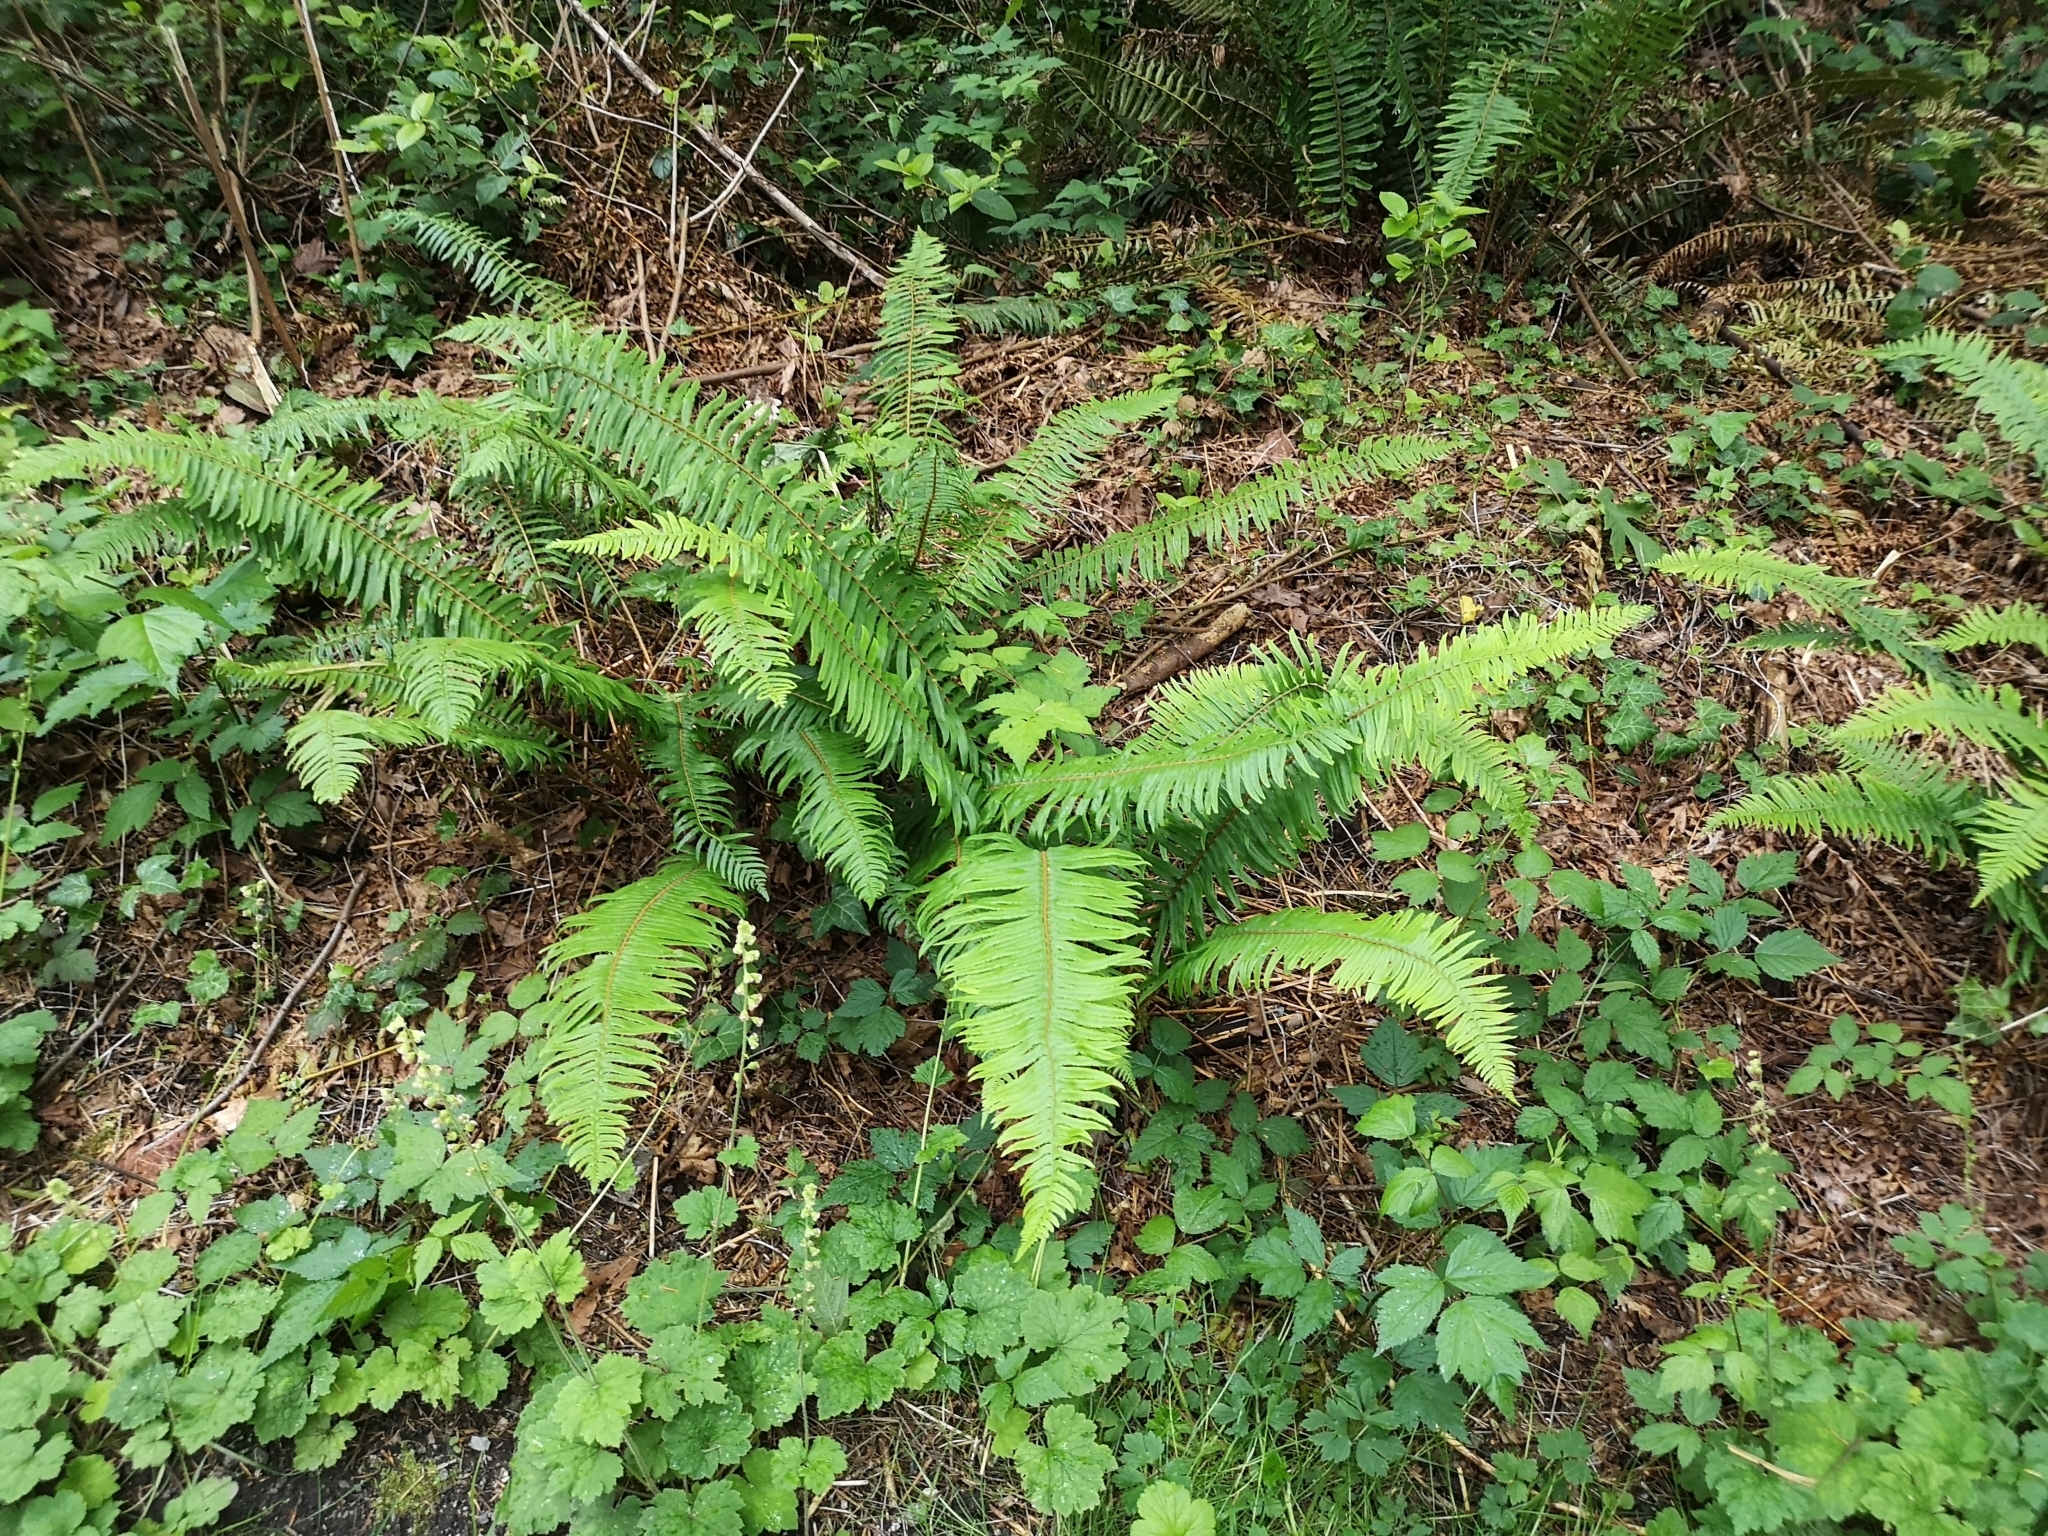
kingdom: Plantae
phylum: Tracheophyta
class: Polypodiopsida
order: Polypodiales
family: Dryopteridaceae
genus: Polystichum
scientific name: Polystichum munitum
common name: Western sword-fern
